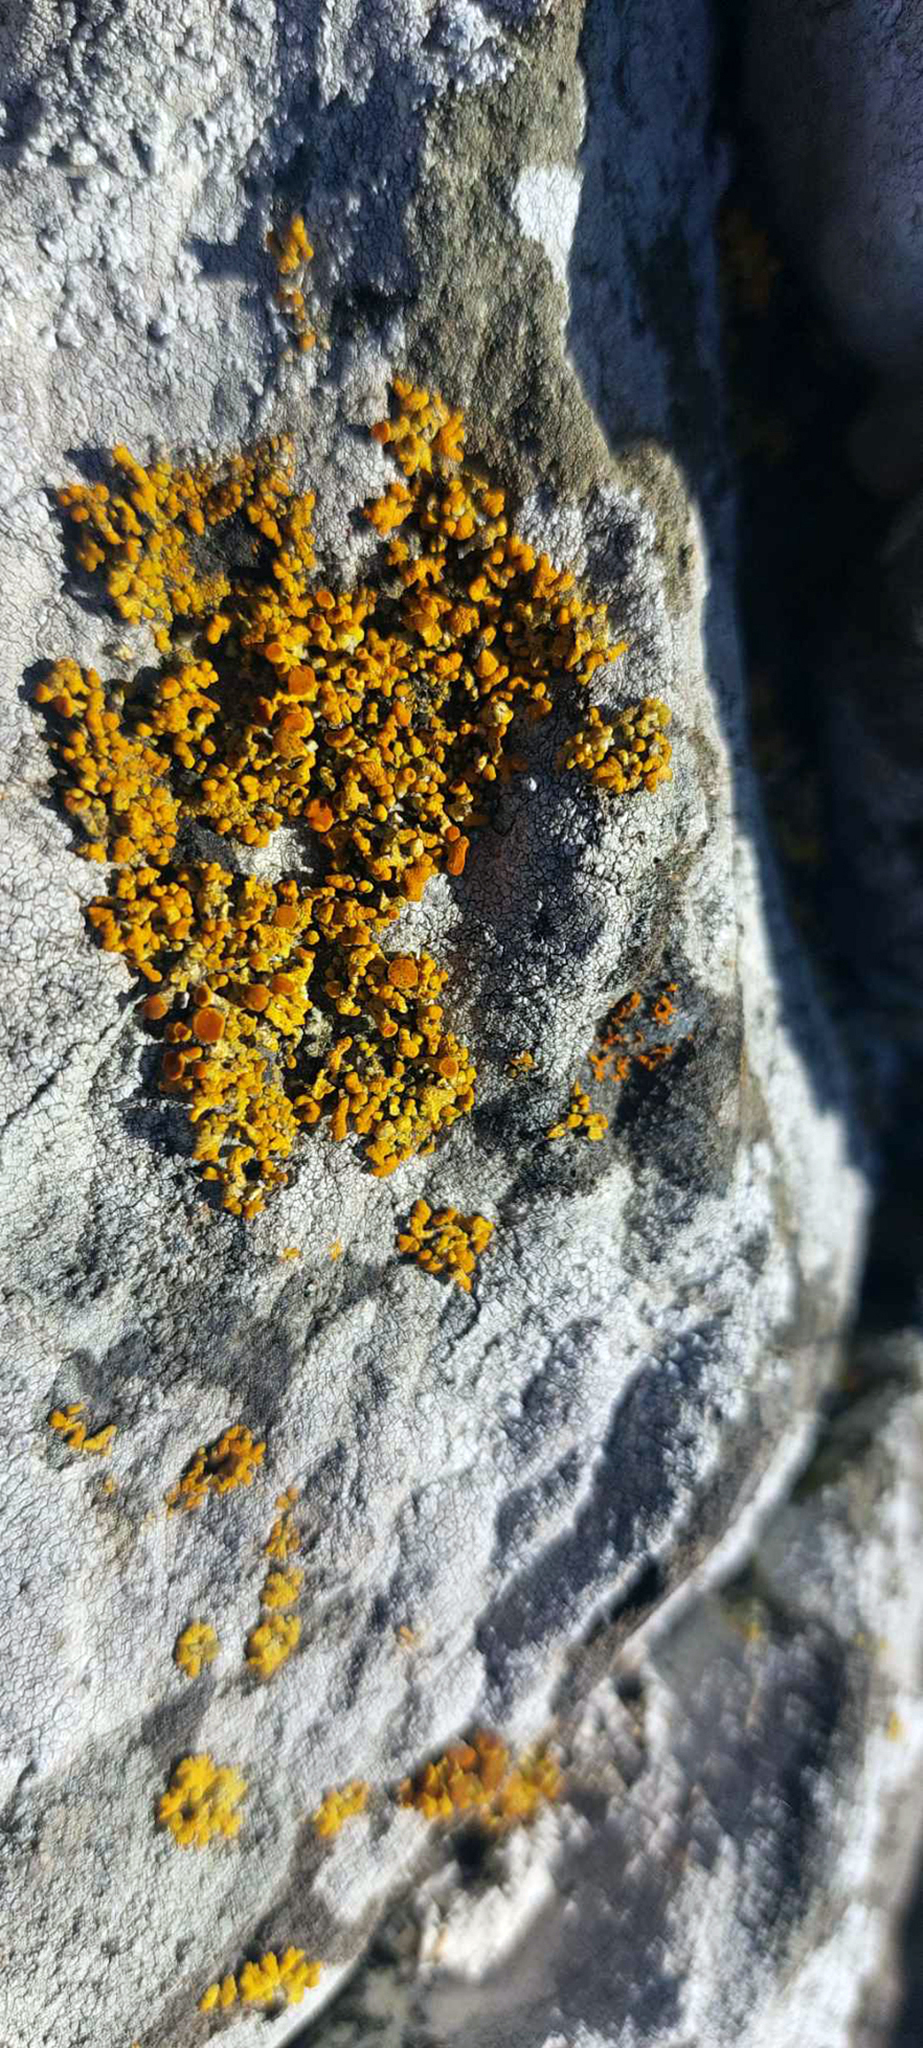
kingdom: Fungi
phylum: Ascomycota
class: Lecanoromycetes
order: Teloschistales
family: Teloschistaceae
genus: Gondwania
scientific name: Gondwania cribrosa
